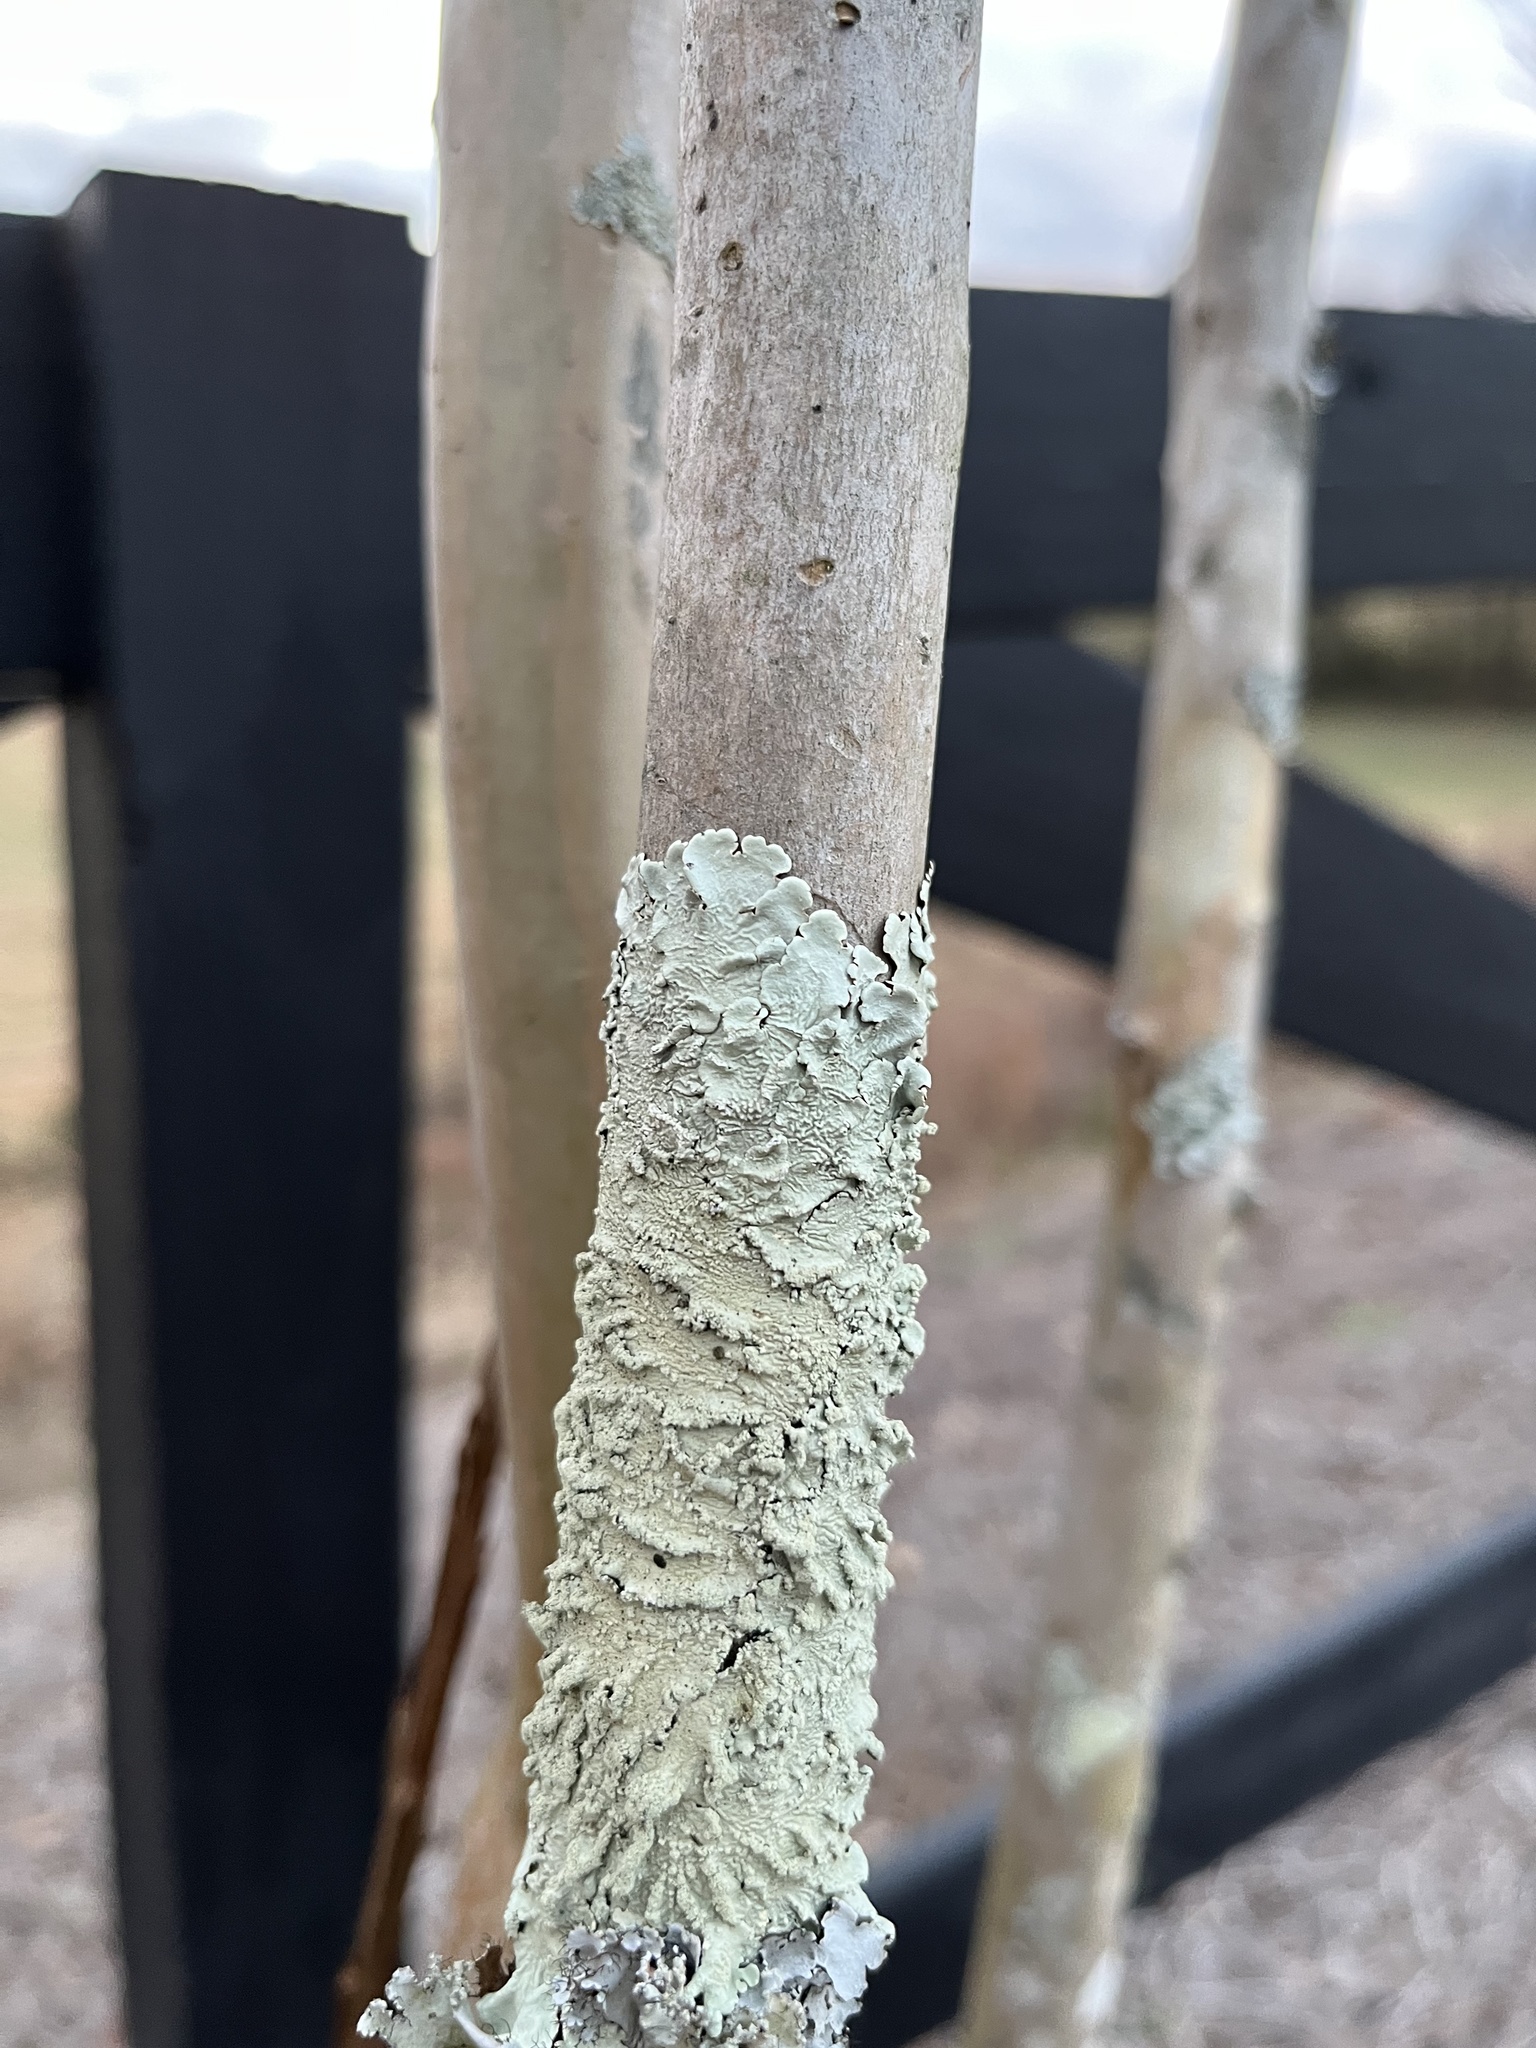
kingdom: Fungi
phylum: Ascomycota
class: Lecanoromycetes
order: Lecanorales
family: Parmeliaceae
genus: Flavoparmelia
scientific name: Flavoparmelia caperata
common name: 40-mile per hour lichen
